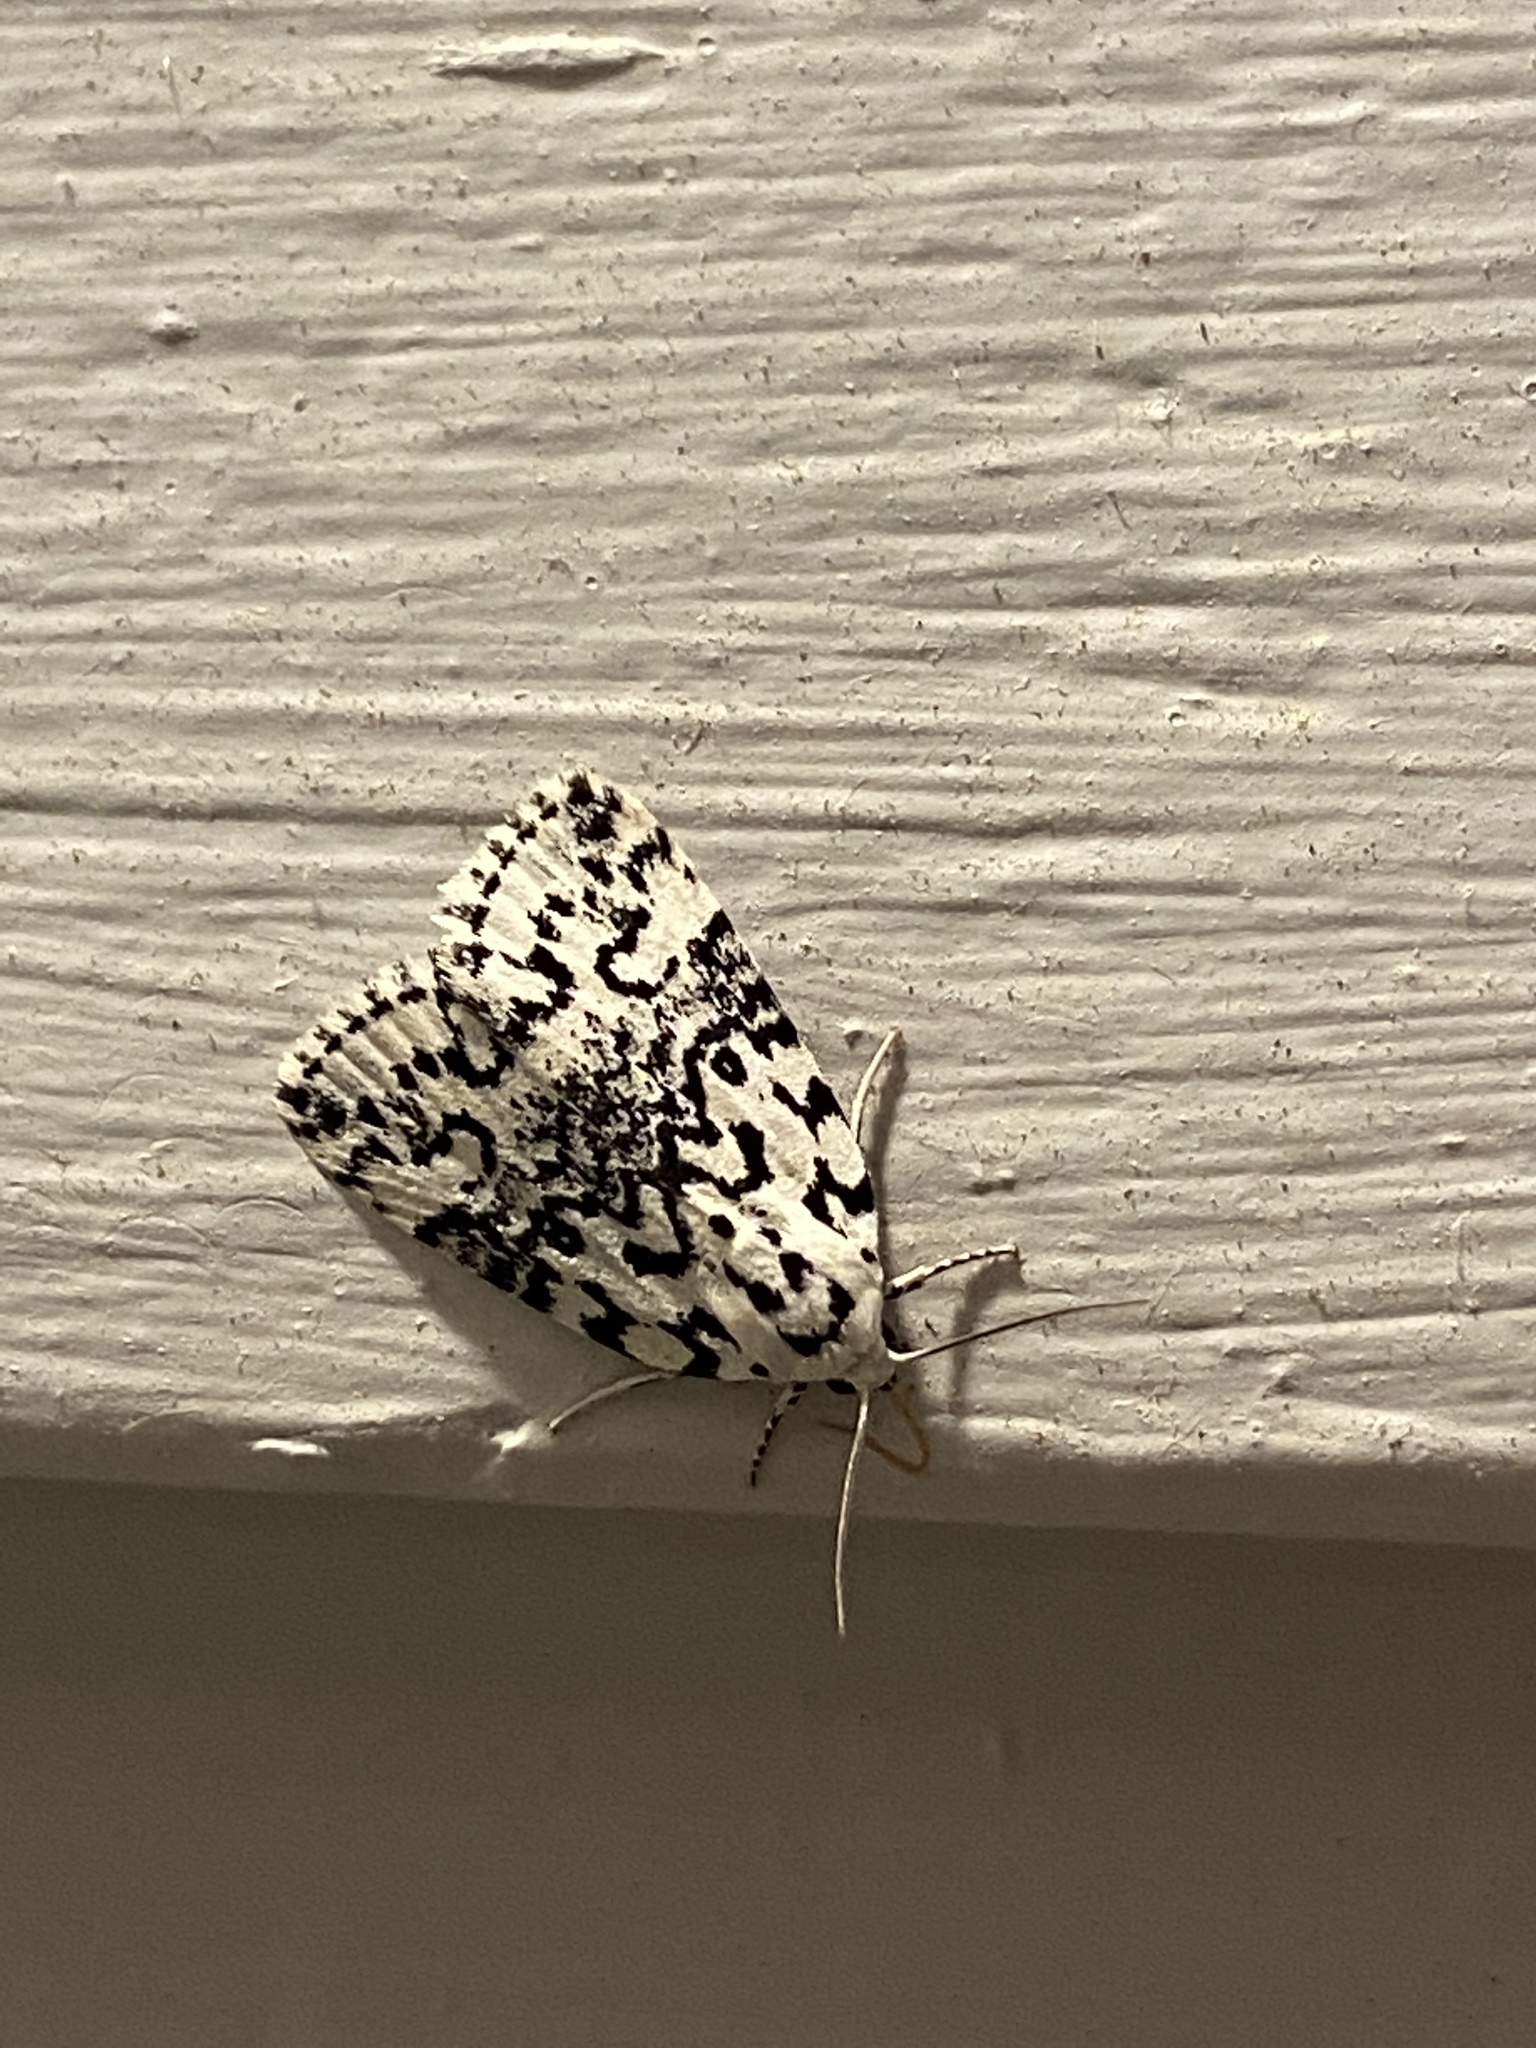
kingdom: Animalia
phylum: Arthropoda
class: Insecta
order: Lepidoptera
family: Noctuidae
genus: Polygrammate
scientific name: Polygrammate hebraeicum
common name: Hebrew moth
